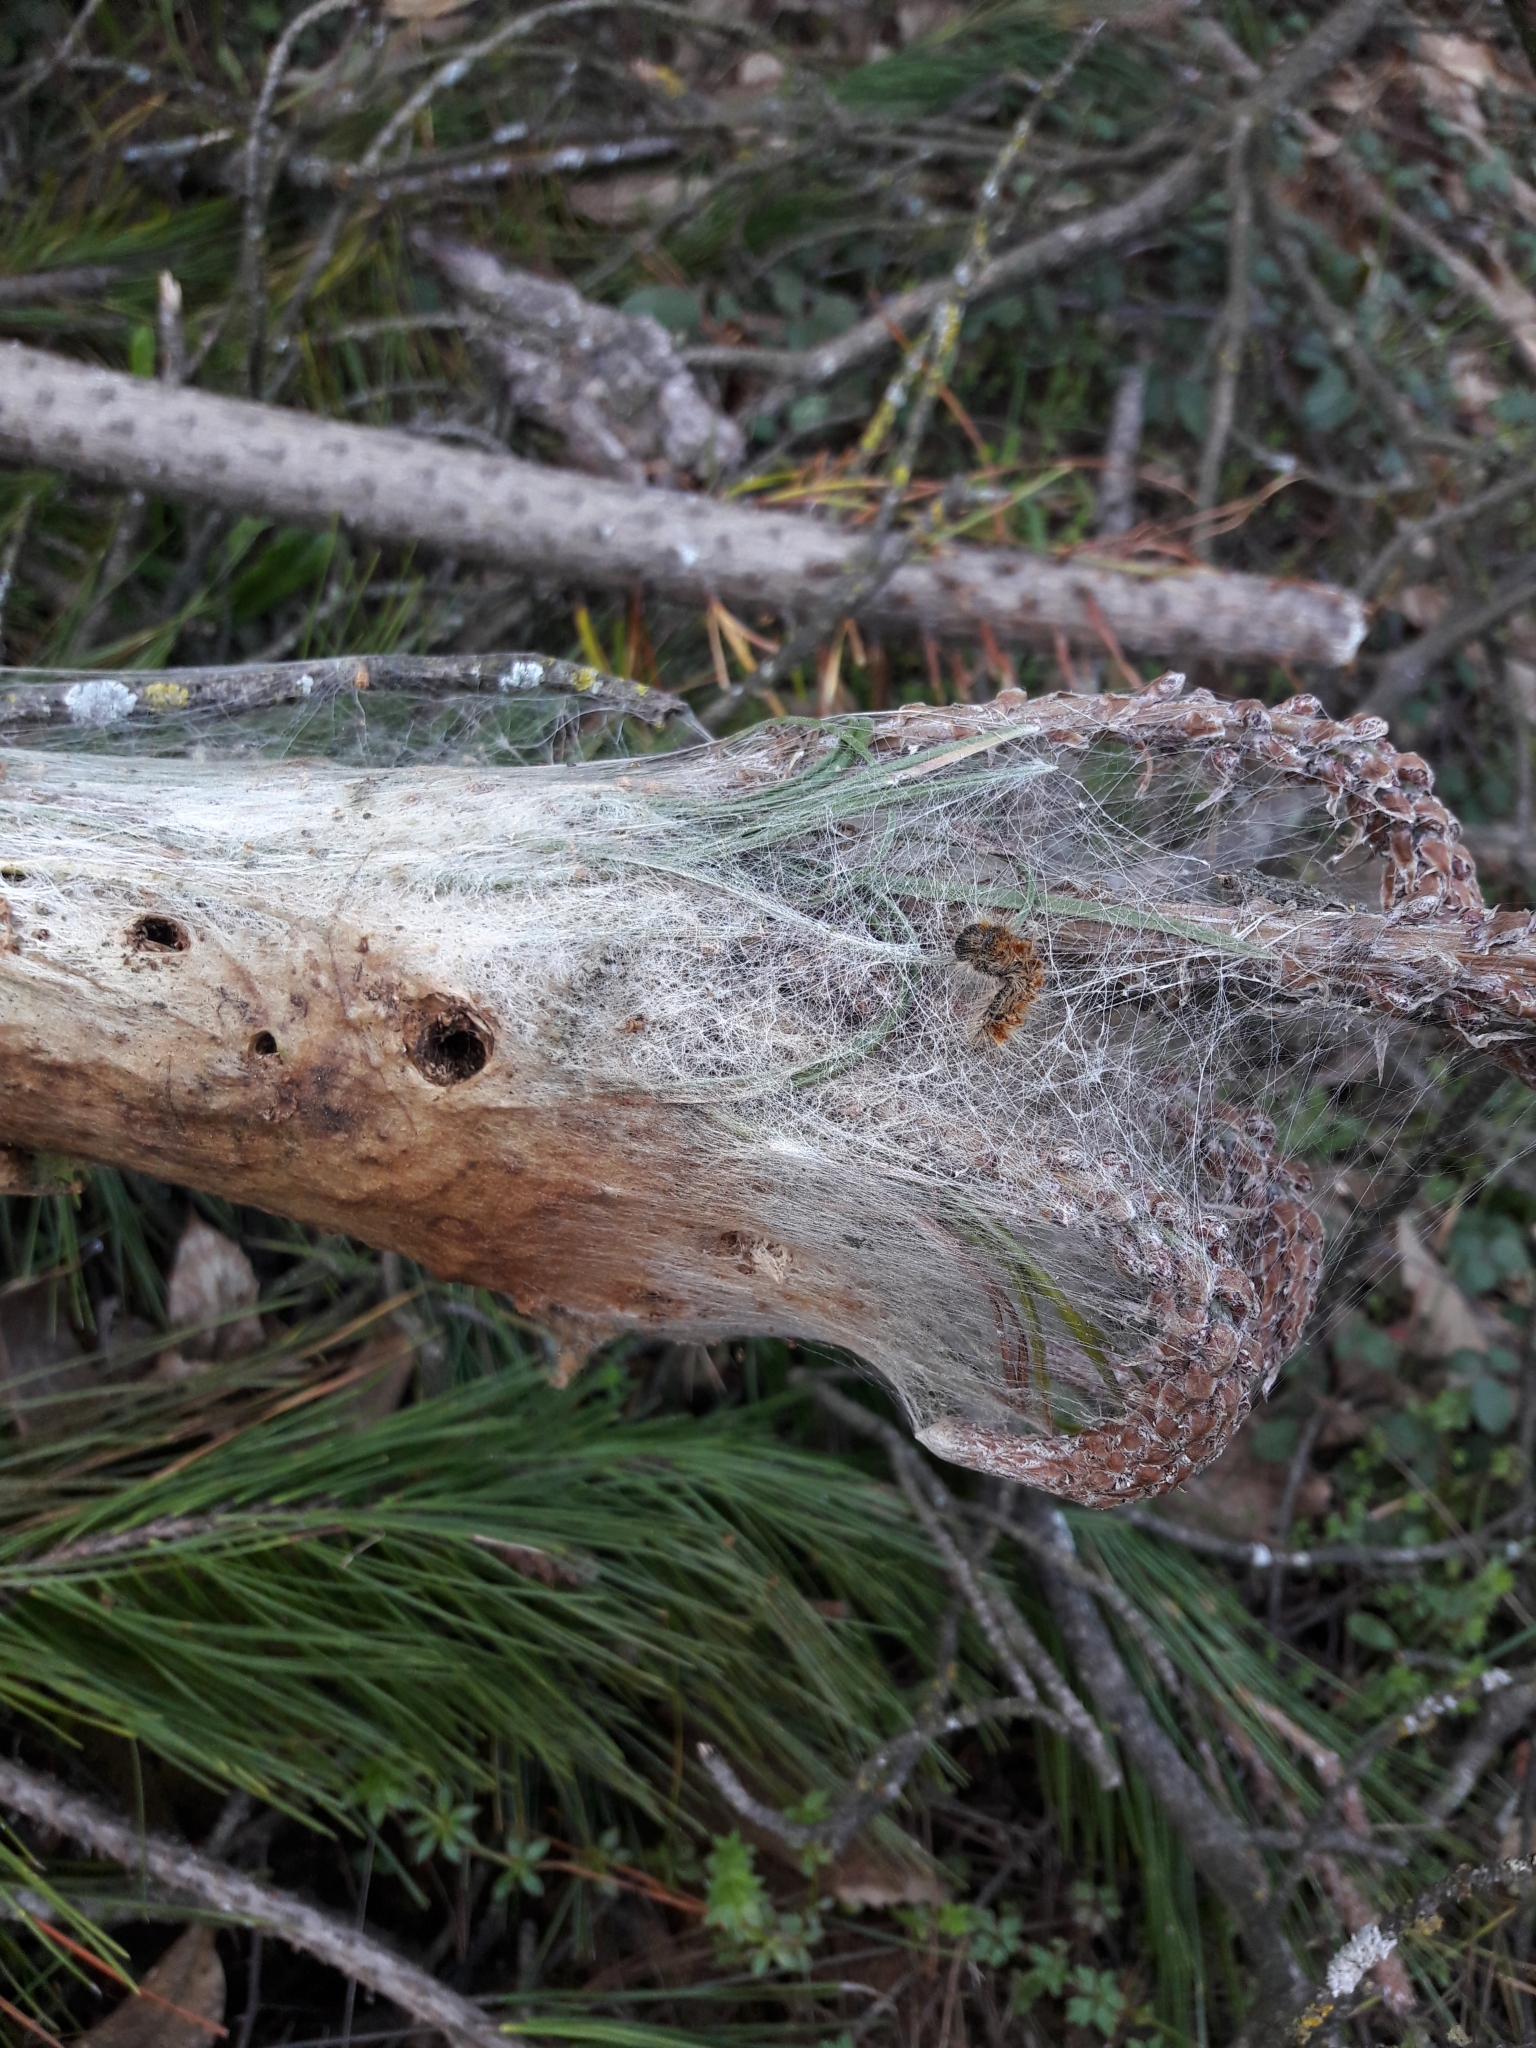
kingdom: Animalia
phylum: Arthropoda
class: Insecta
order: Lepidoptera
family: Notodontidae
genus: Thaumetopoea
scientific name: Thaumetopoea pityocampa
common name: Pine processionary
